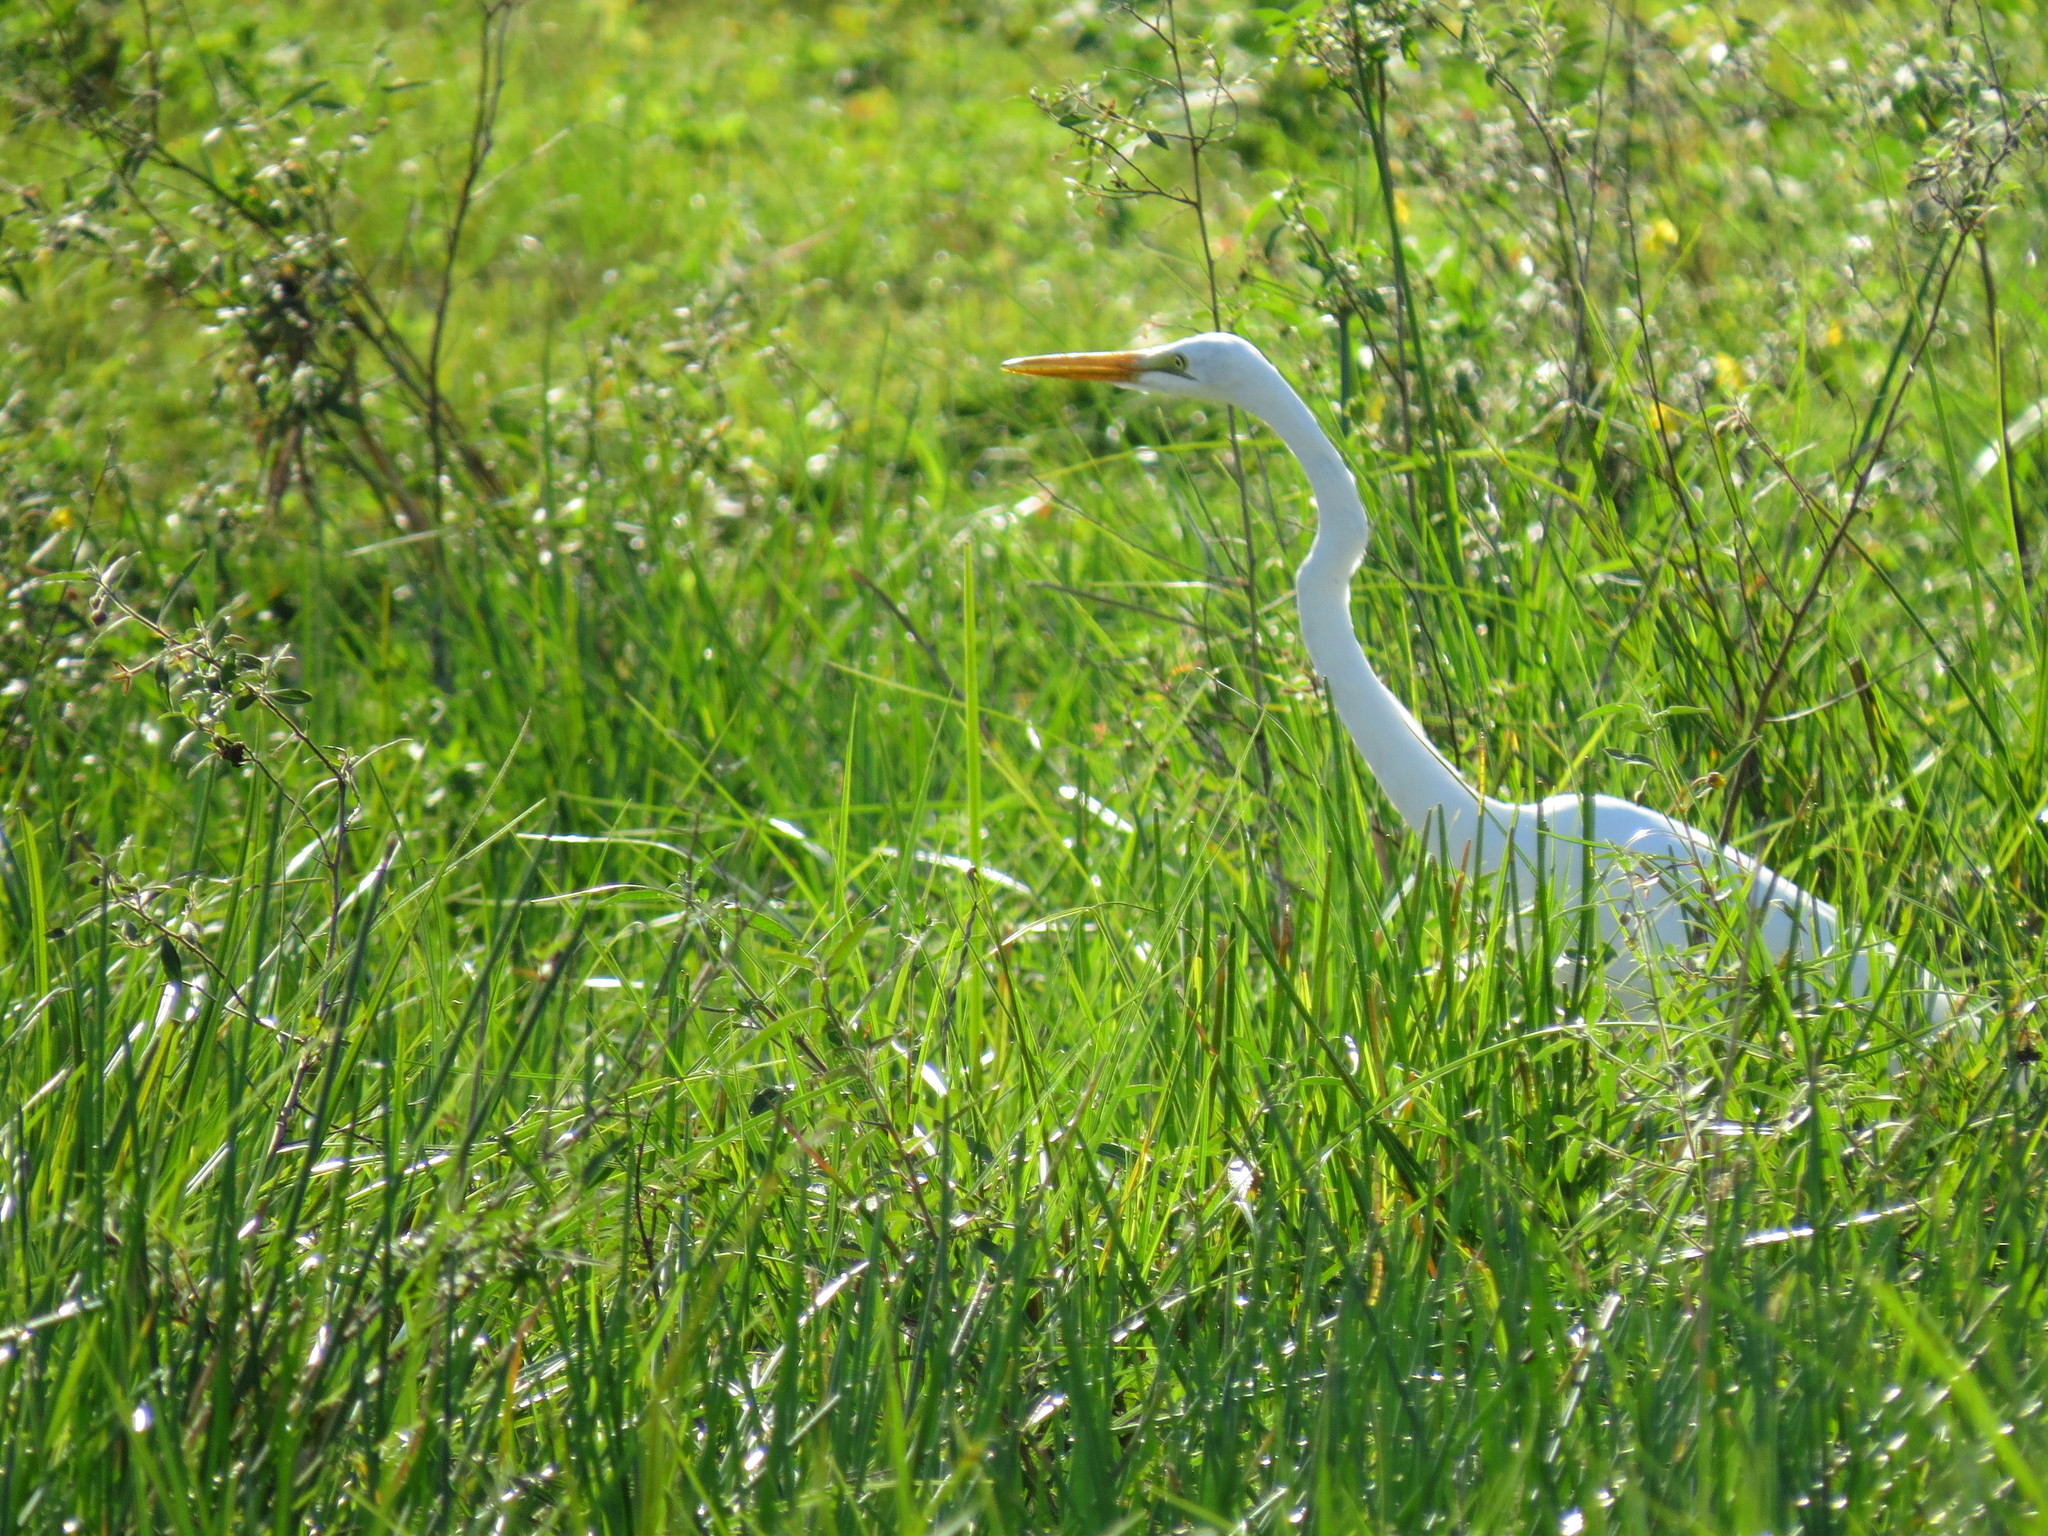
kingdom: Animalia
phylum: Chordata
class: Aves
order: Pelecaniformes
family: Ardeidae
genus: Ardea
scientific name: Ardea alba
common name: Great egret
